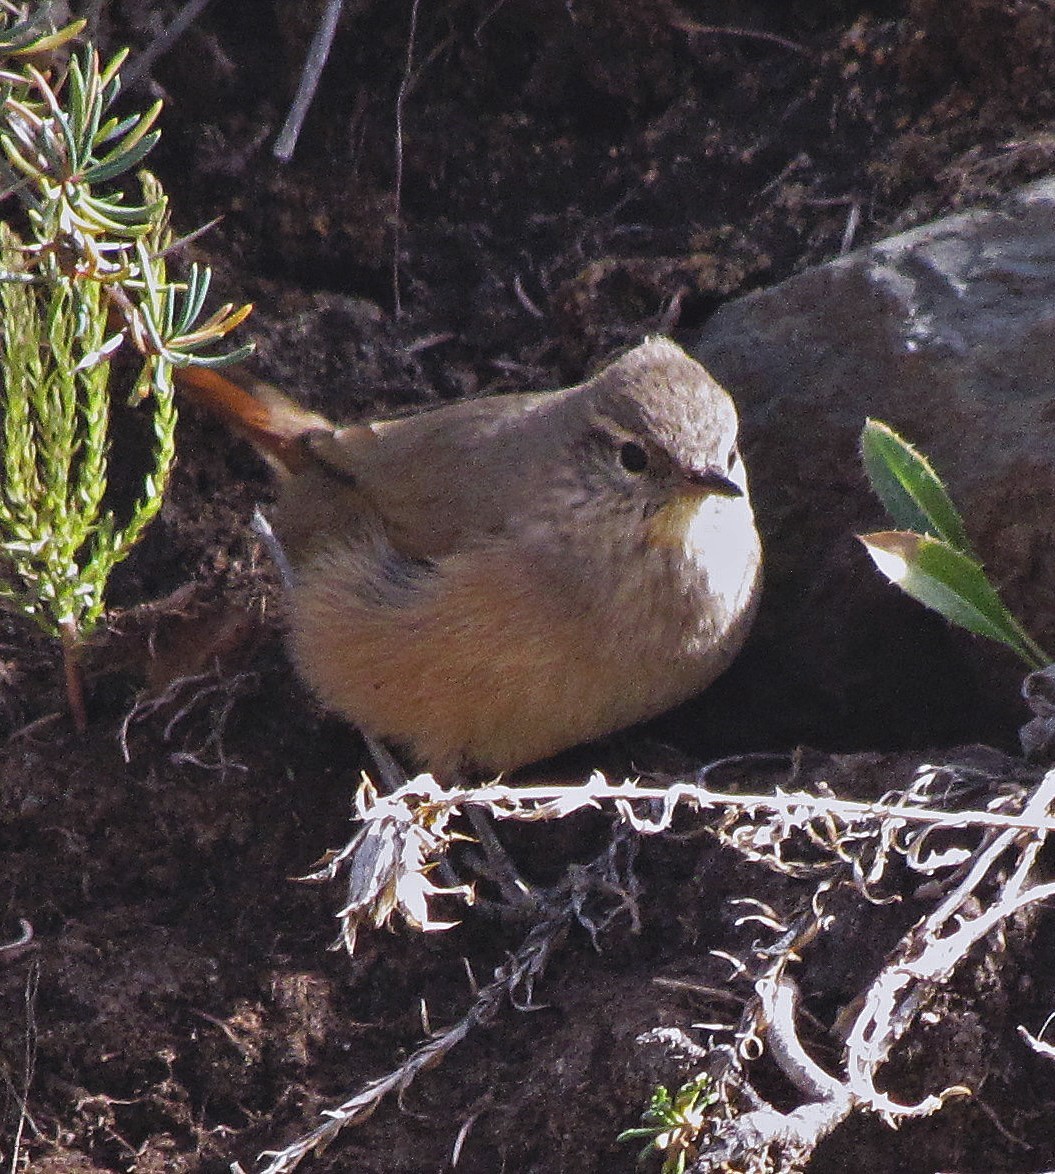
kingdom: Animalia
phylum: Chordata
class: Aves
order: Passeriformes
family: Furnariidae
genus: Asthenes
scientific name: Asthenes modesta
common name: Cordilleran canastero
